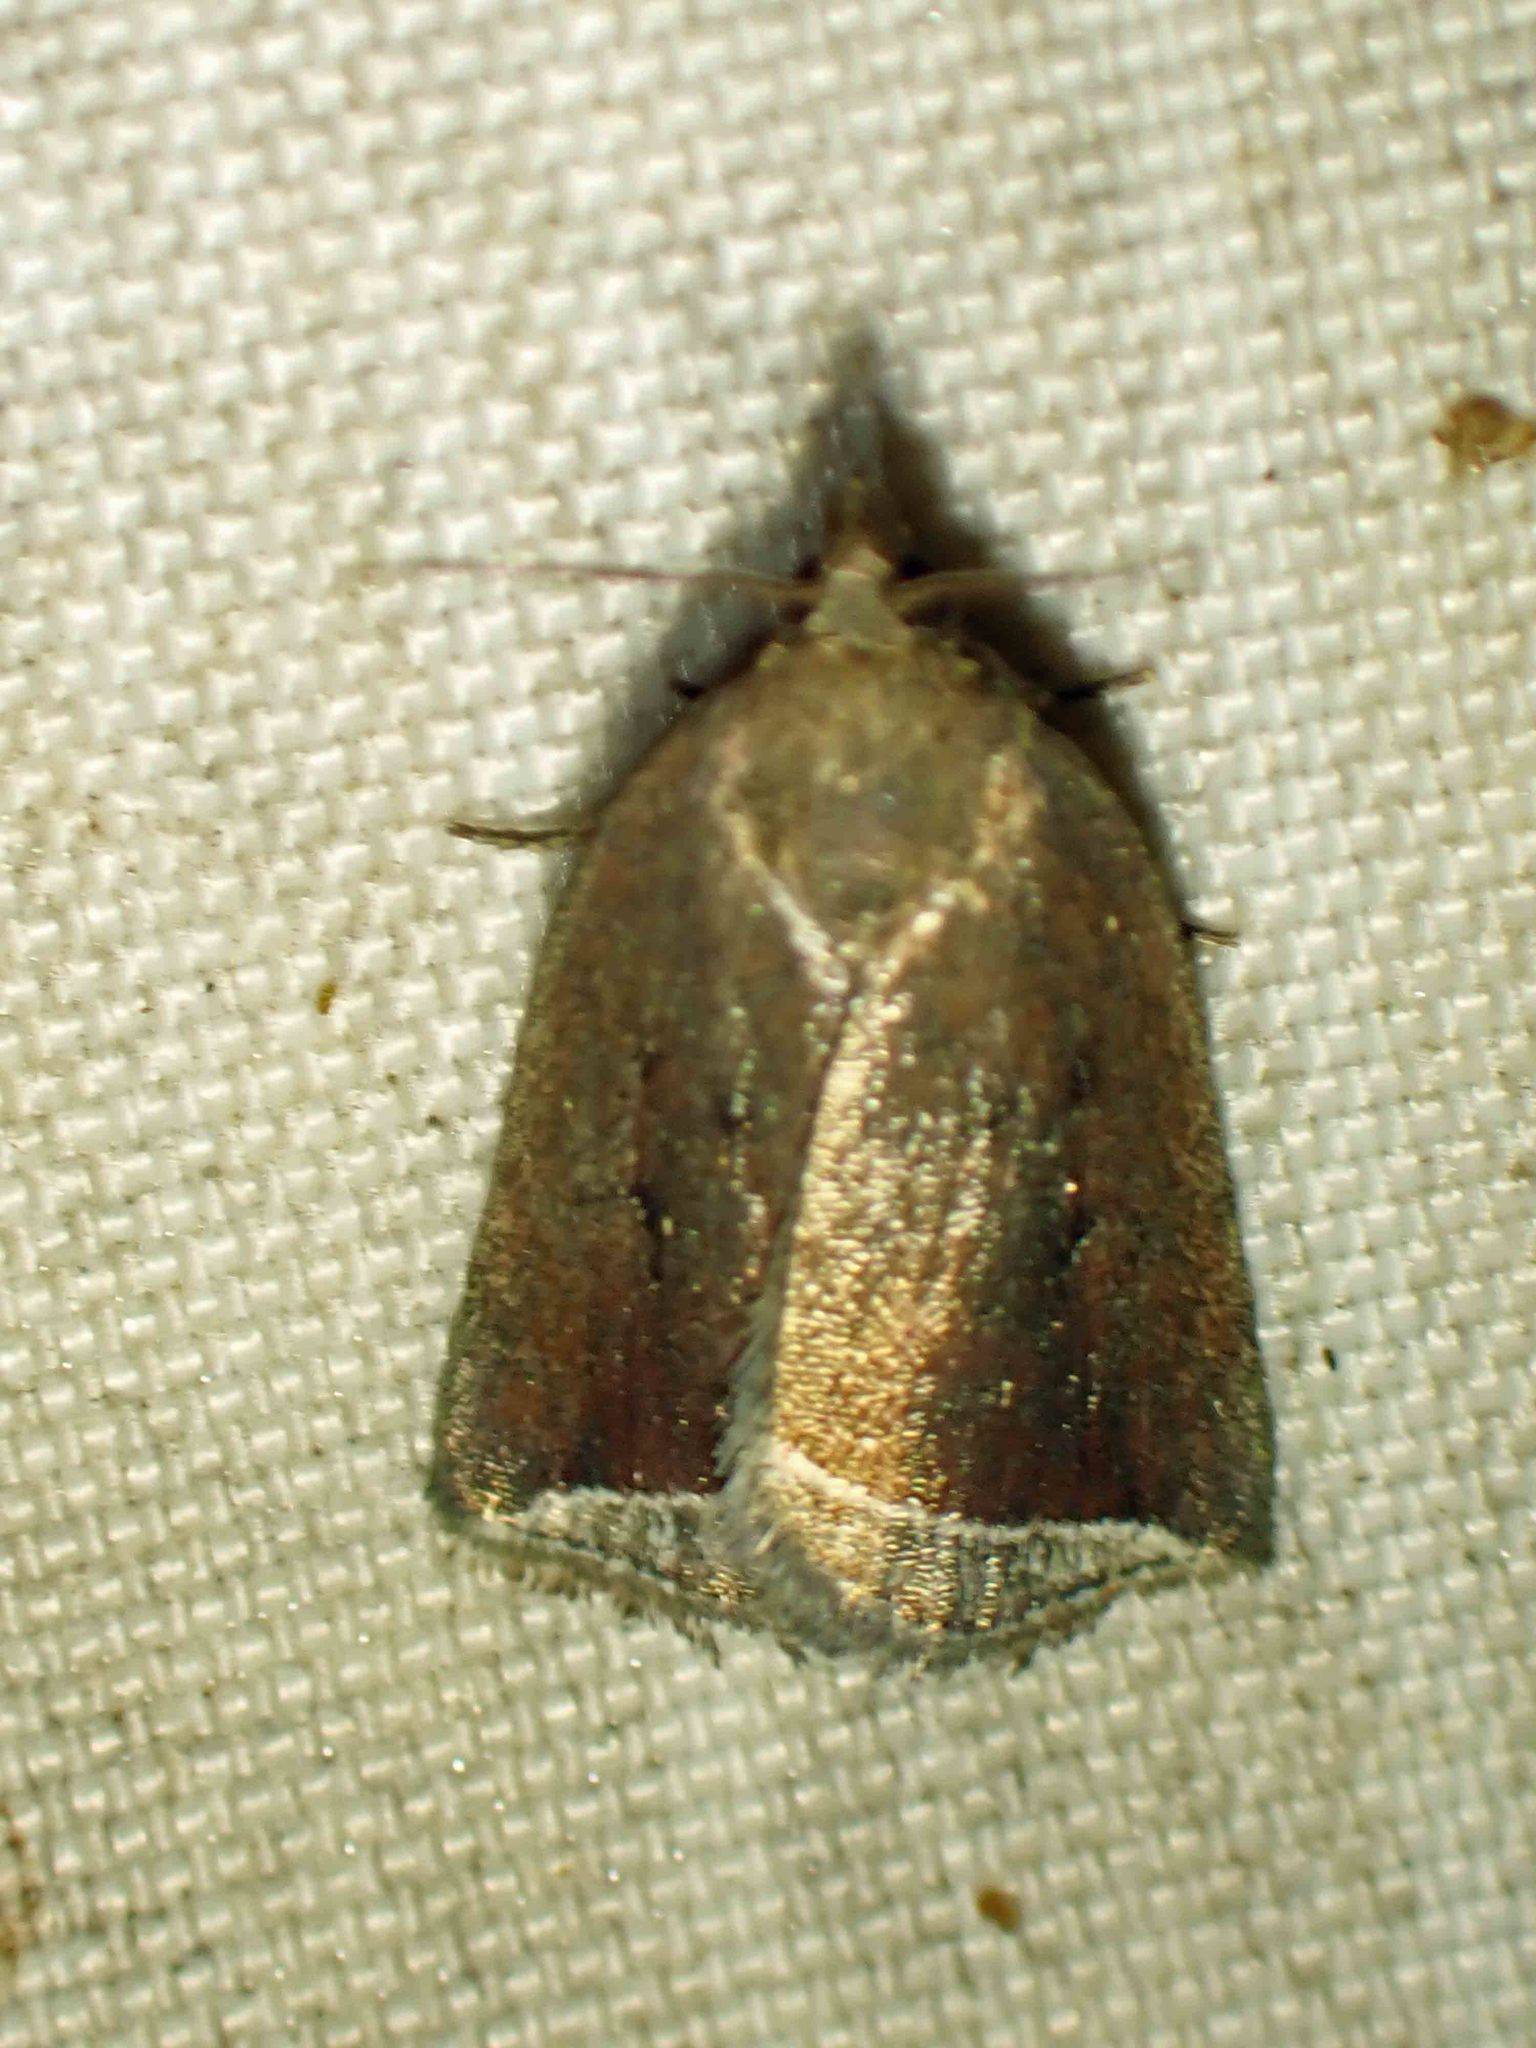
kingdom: Animalia
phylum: Arthropoda
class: Insecta
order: Lepidoptera
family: Erebidae
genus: Capis
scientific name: Capis curvata
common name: Curved halter moth
